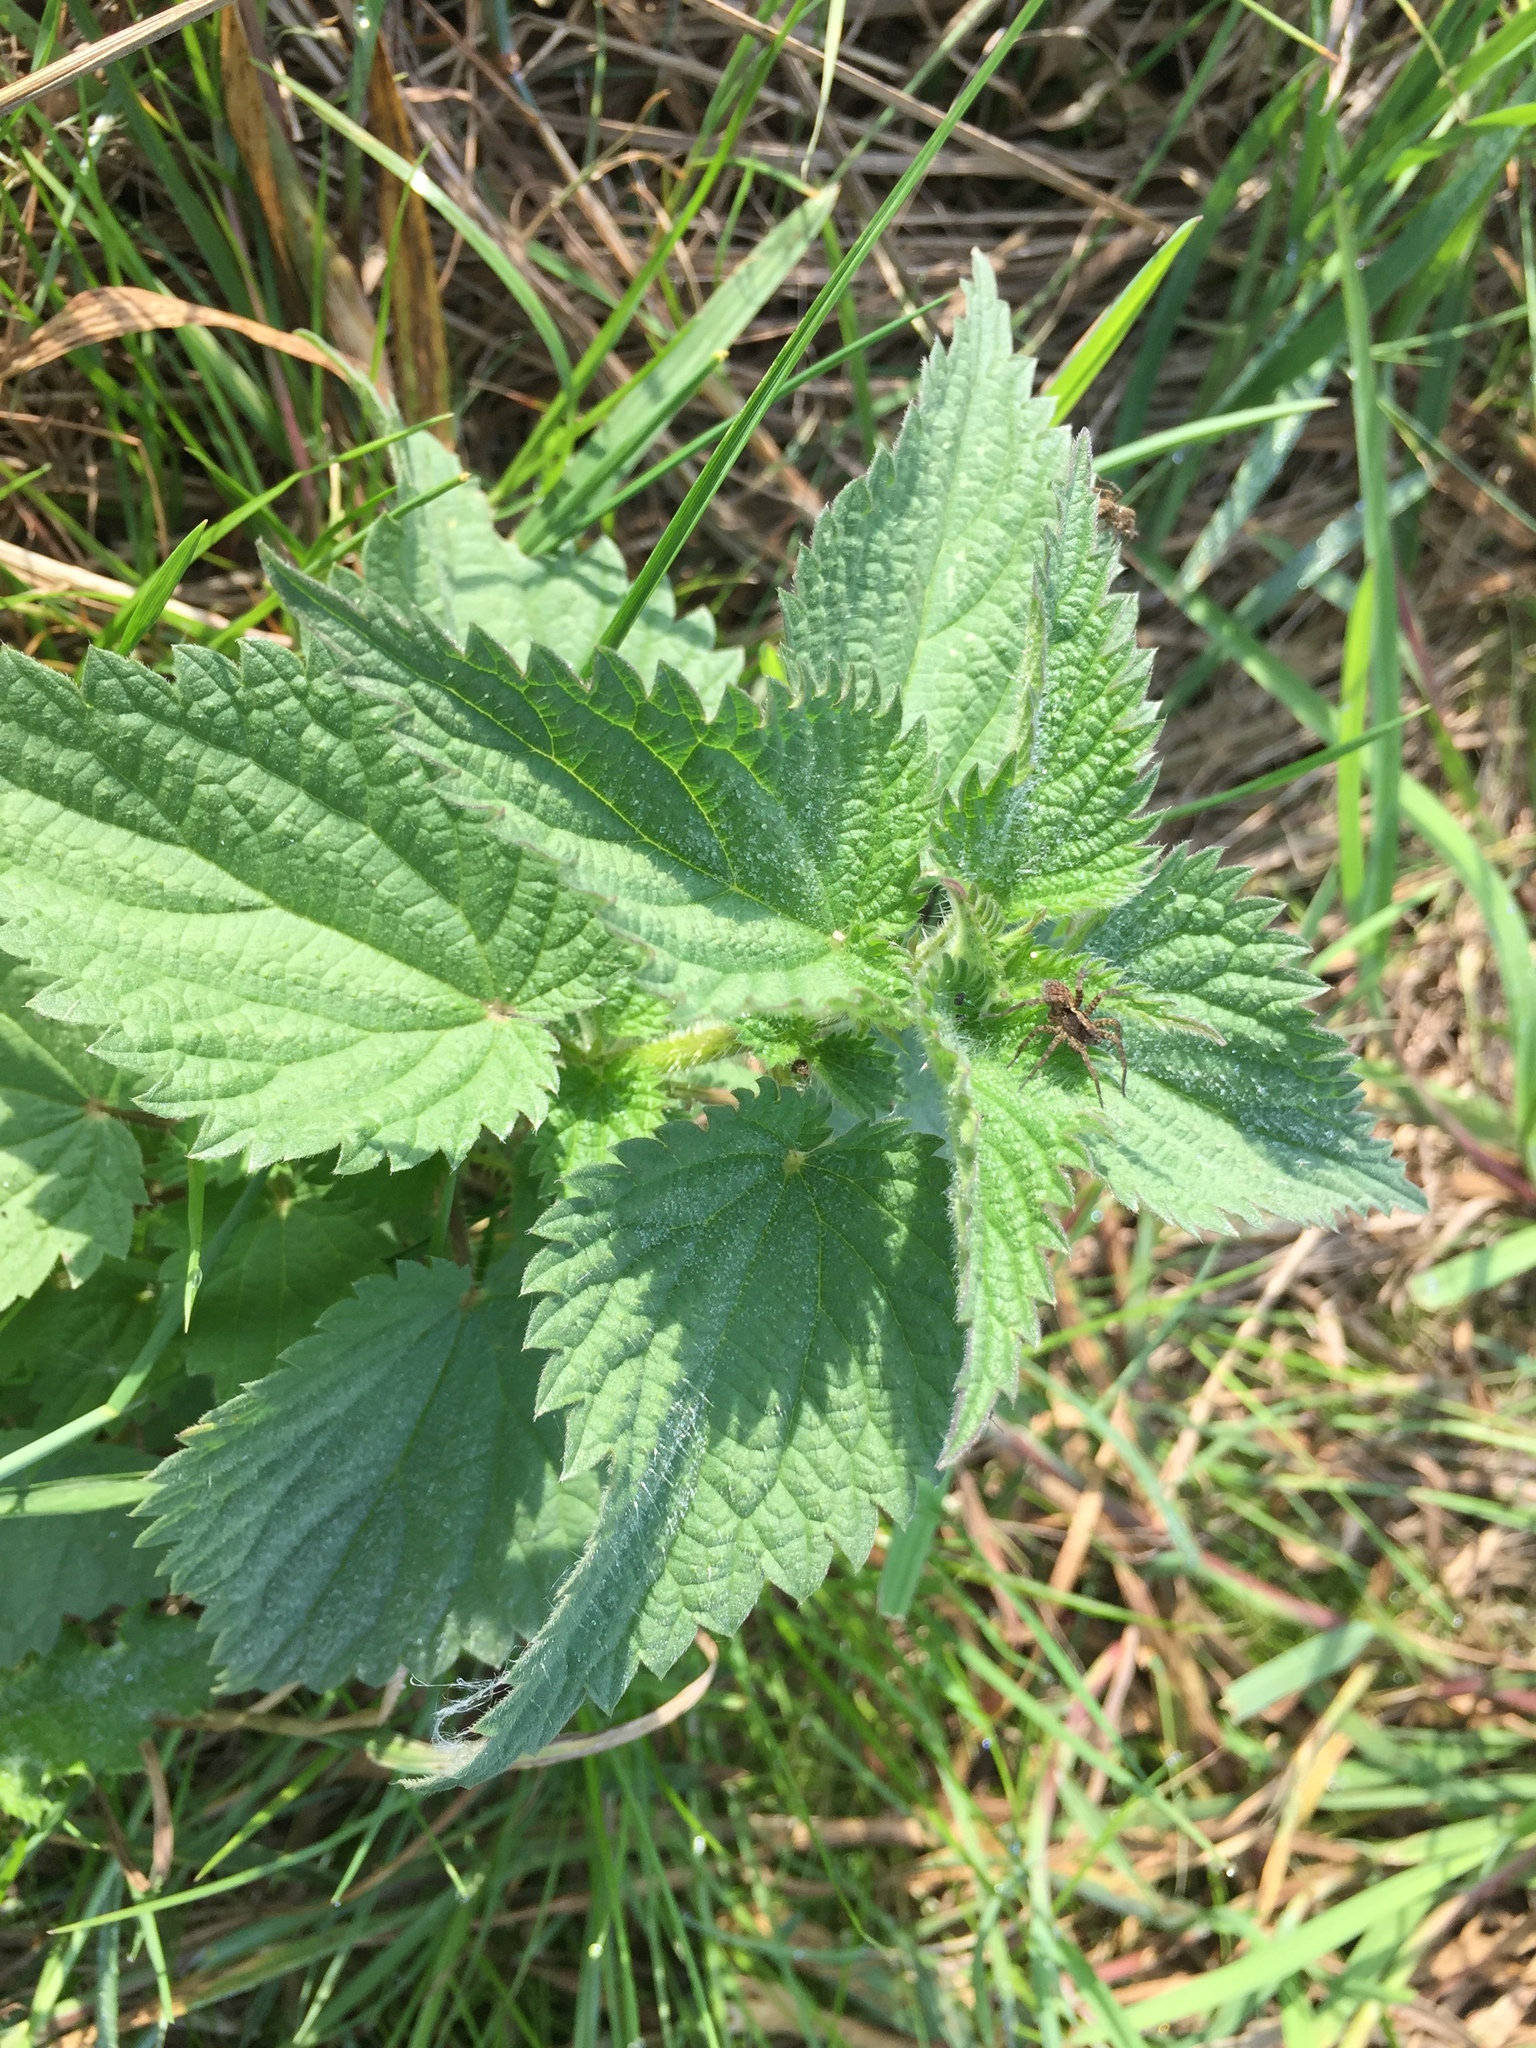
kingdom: Plantae
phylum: Tracheophyta
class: Magnoliopsida
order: Rosales
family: Urticaceae
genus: Urtica
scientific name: Urtica dioica
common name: Common nettle
